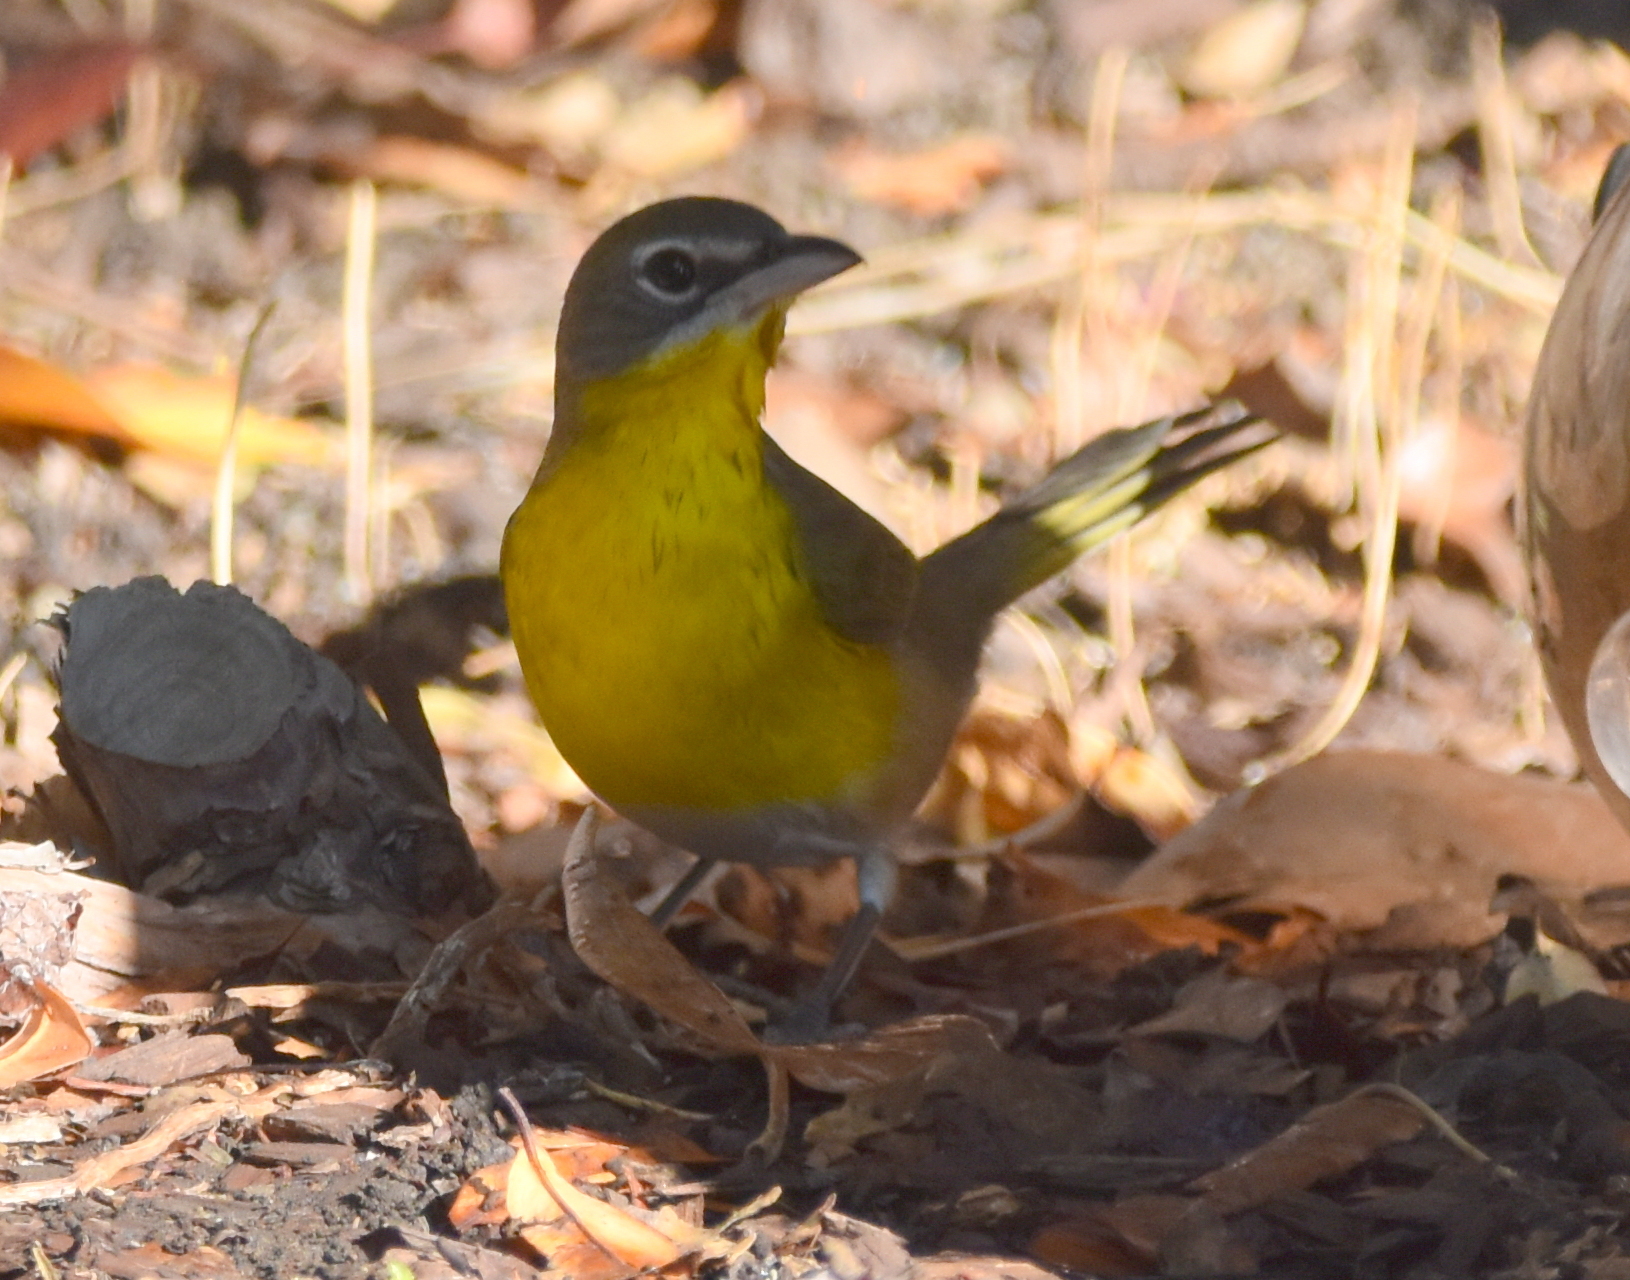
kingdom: Animalia
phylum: Chordata
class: Aves
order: Passeriformes
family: Parulidae
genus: Icteria
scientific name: Icteria virens
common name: Yellow-breasted chat
